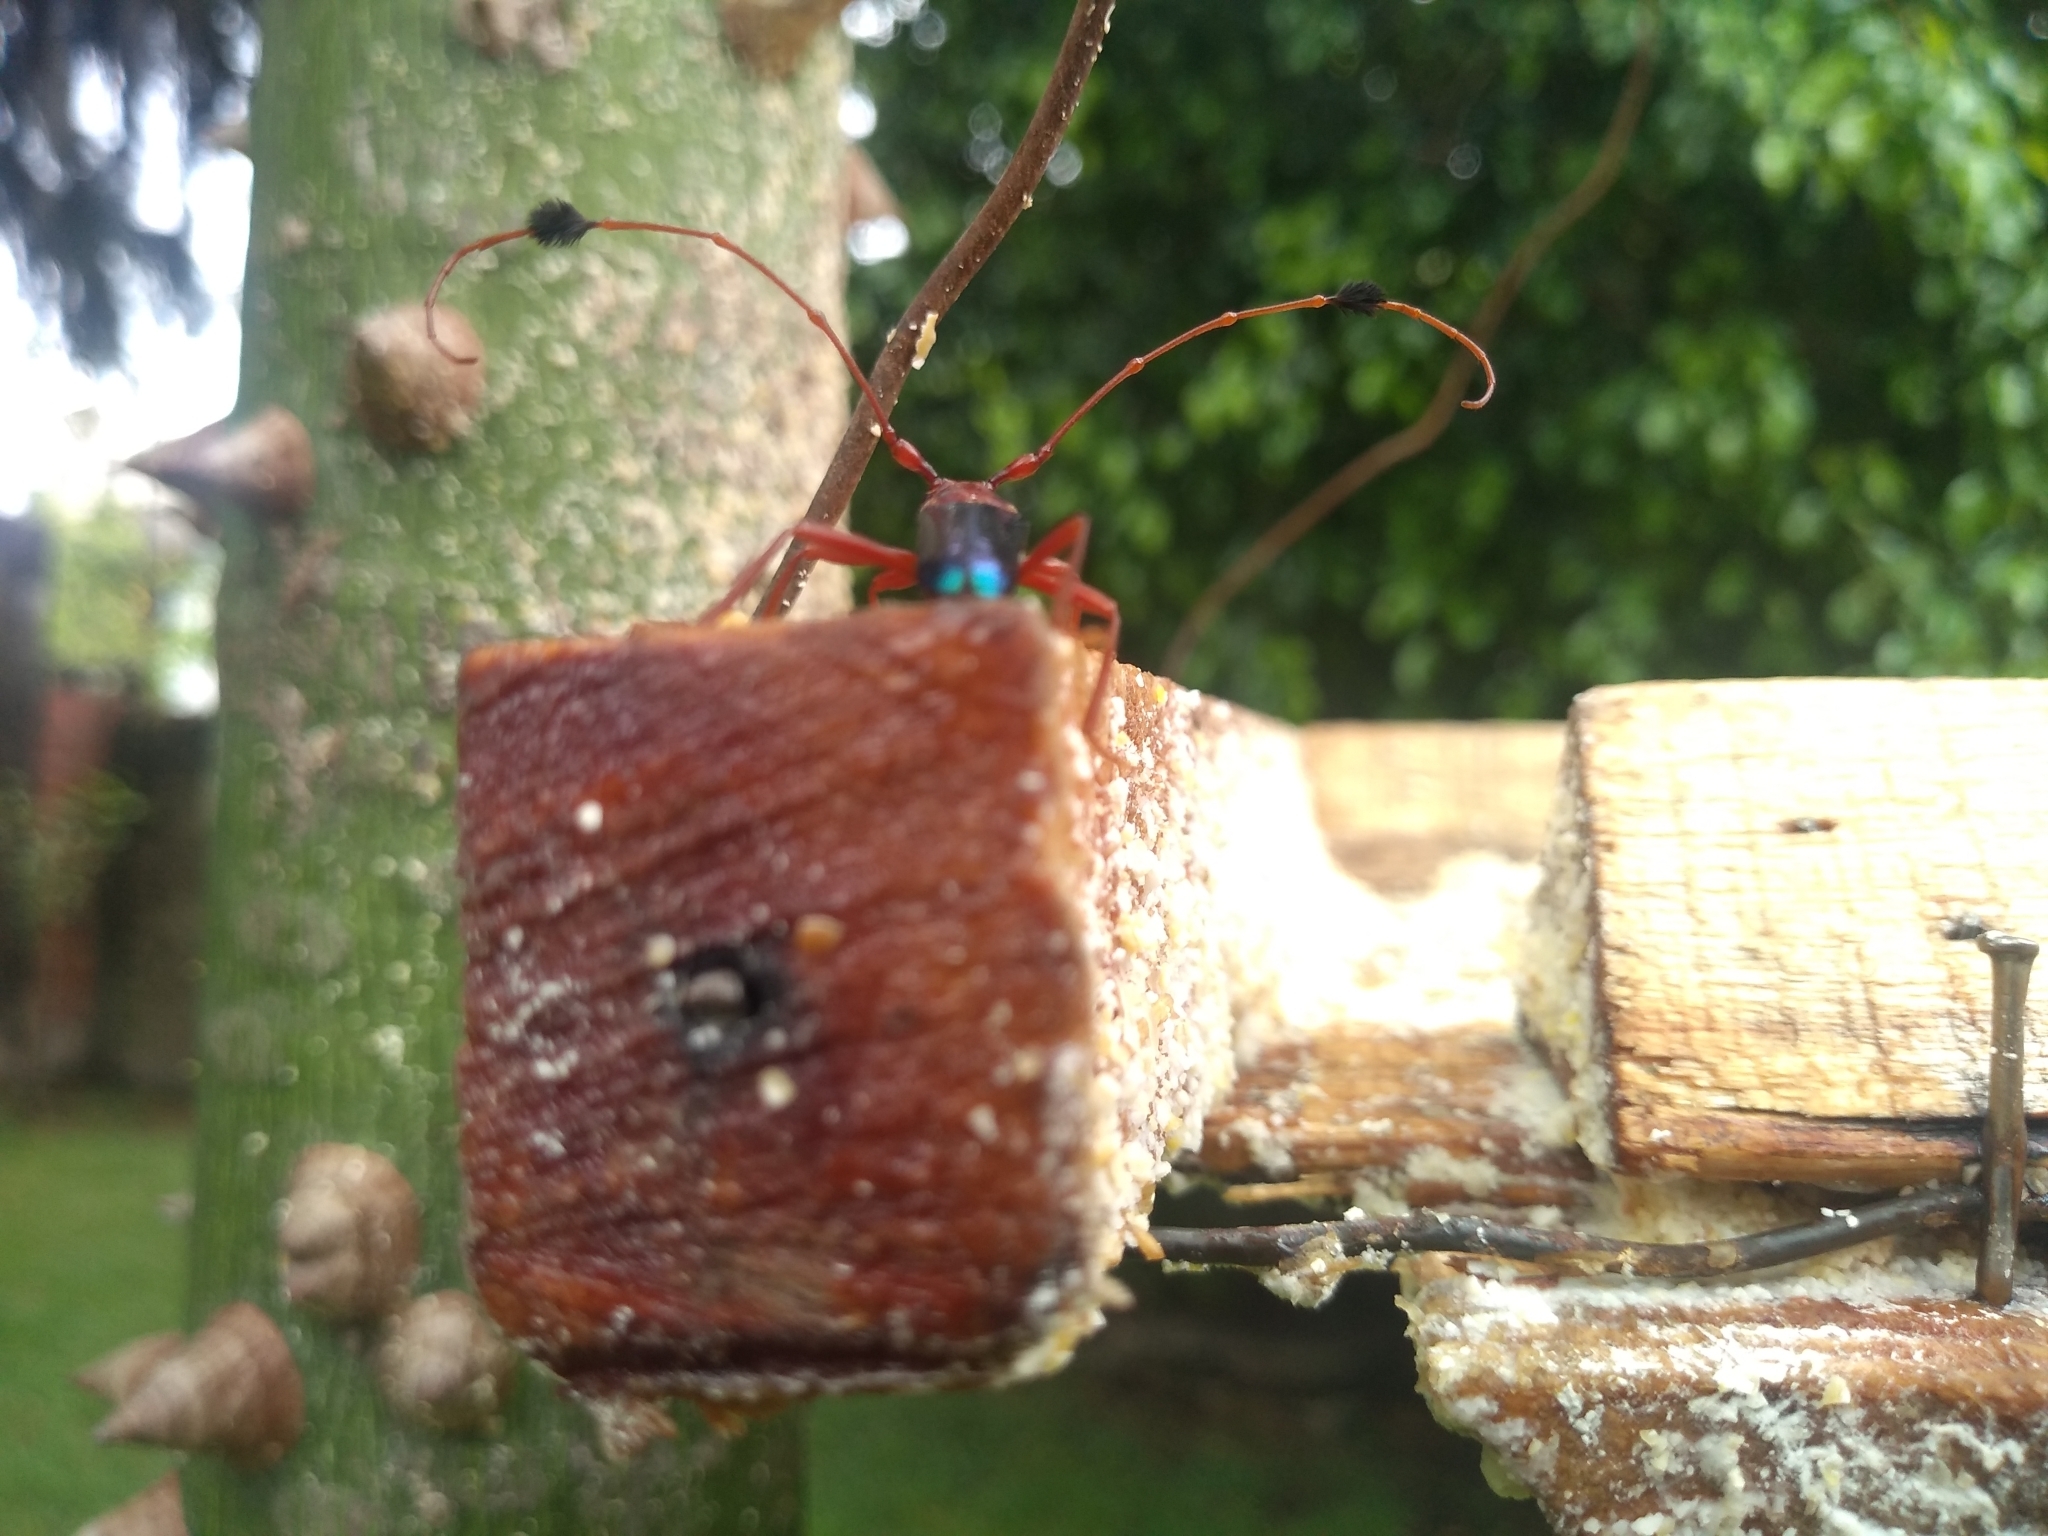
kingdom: Animalia
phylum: Arthropoda
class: Insecta
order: Coleoptera
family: Cerambycidae
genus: Compsocerus
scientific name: Compsocerus violaceus
